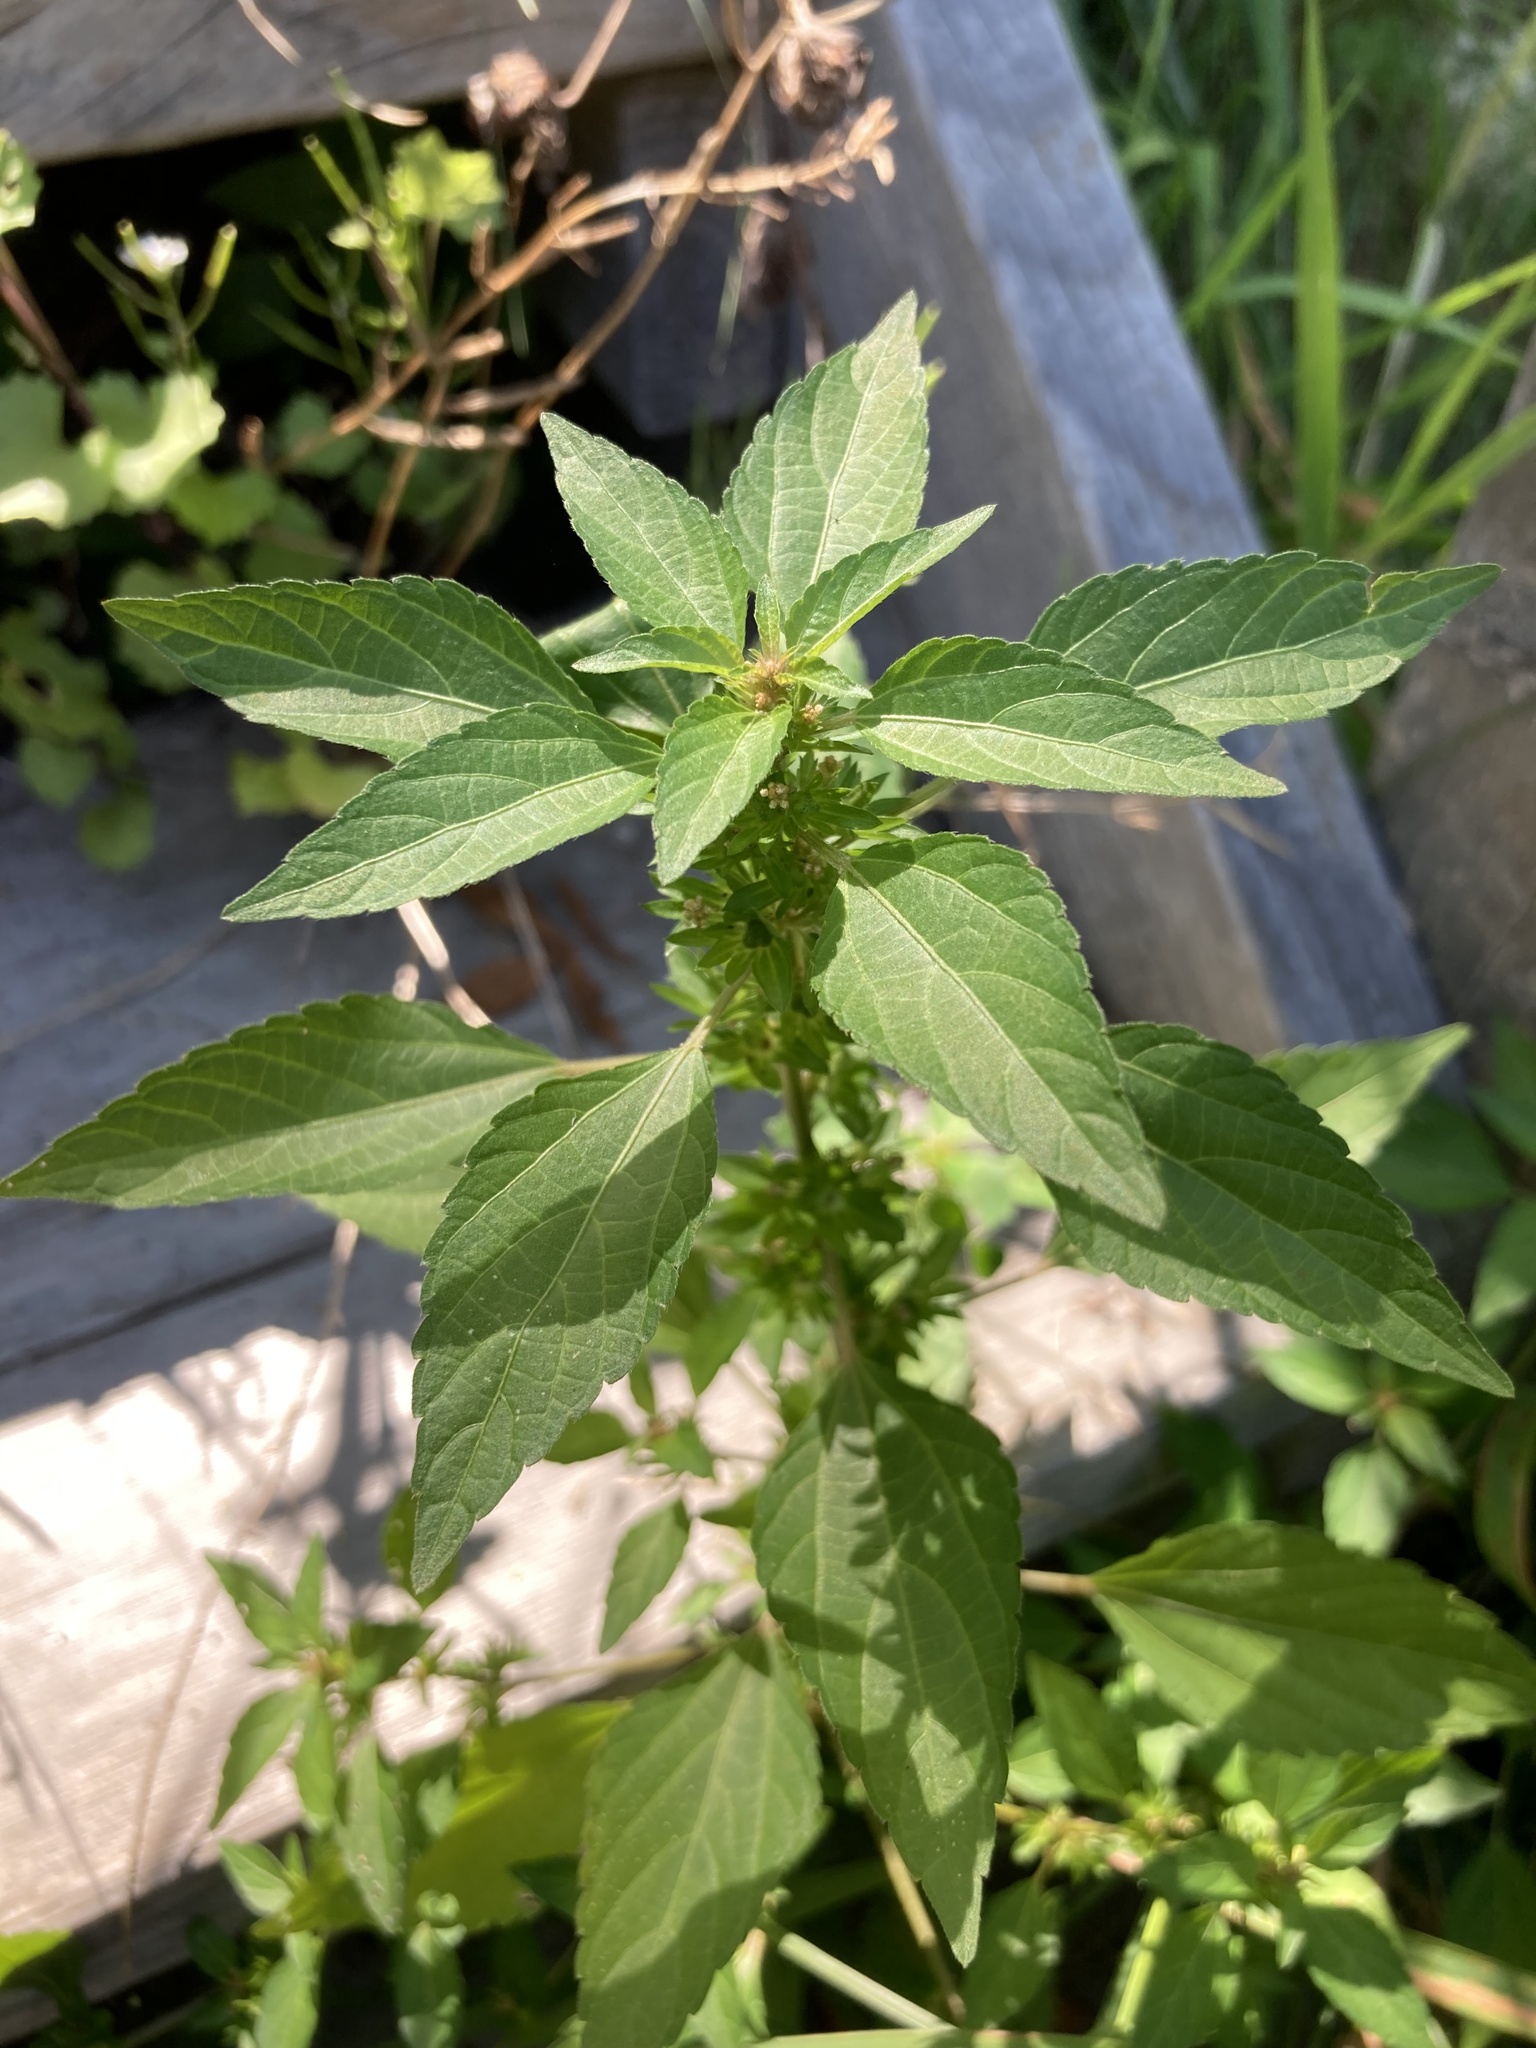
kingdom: Plantae
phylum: Tracheophyta
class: Magnoliopsida
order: Malpighiales
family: Euphorbiaceae
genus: Acalypha
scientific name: Acalypha rhomboidea
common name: Rhombic copperleaf
